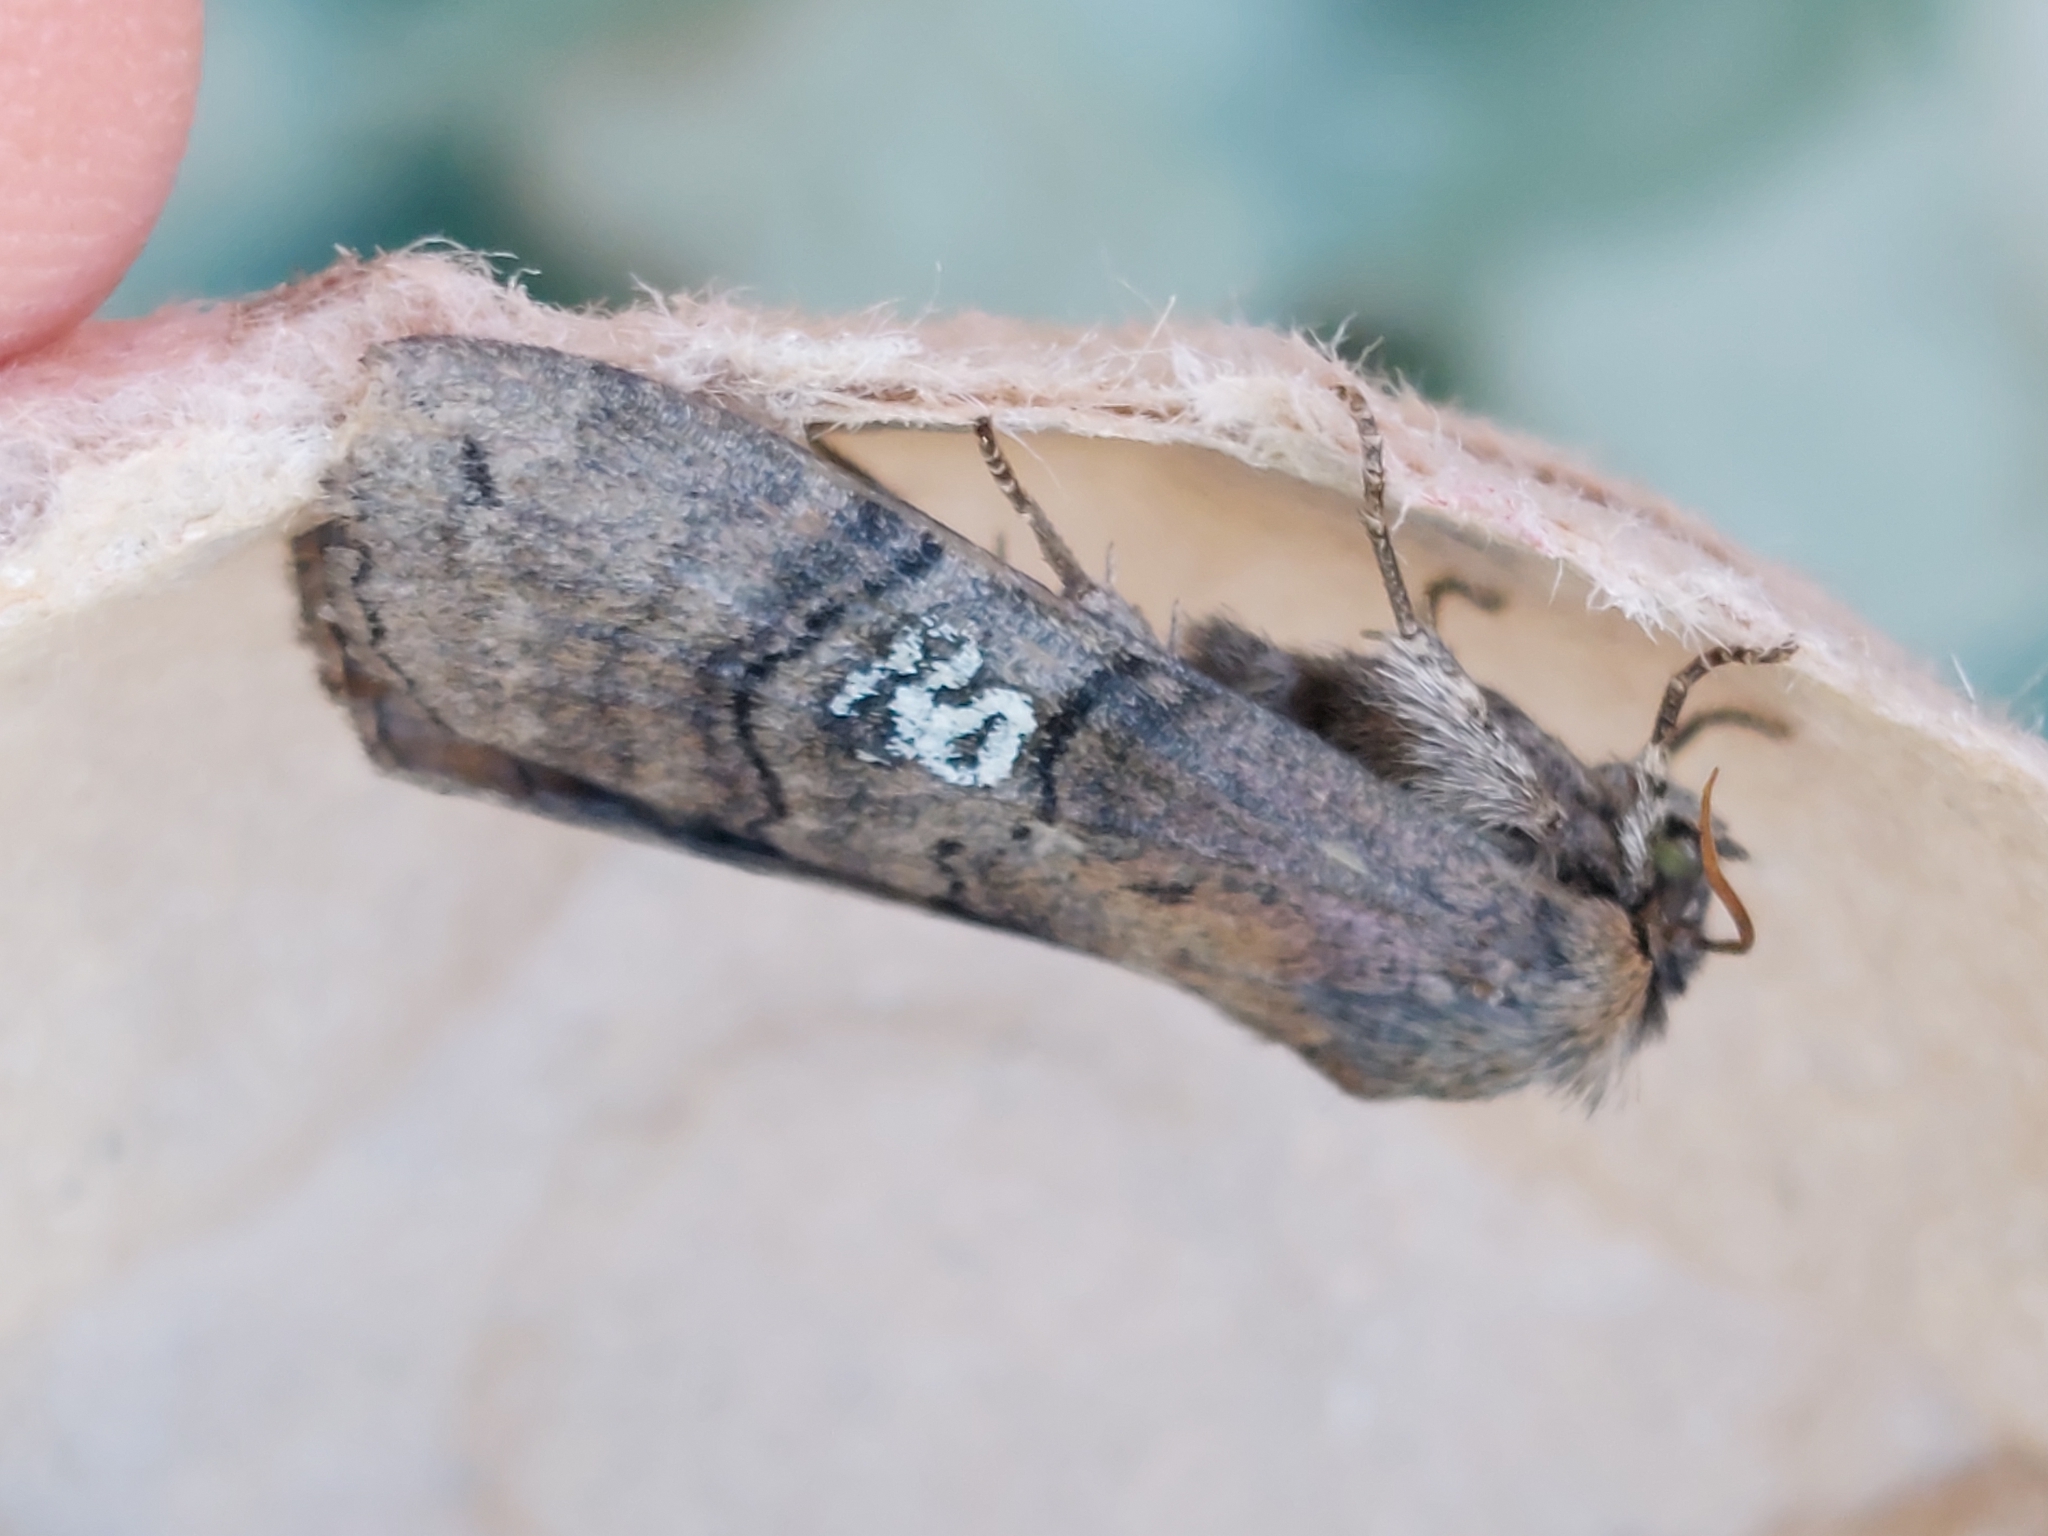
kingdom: Animalia
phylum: Arthropoda
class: Insecta
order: Lepidoptera
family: Drepanidae
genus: Tethea
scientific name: Tethea ocularis
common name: Figure of eighty
